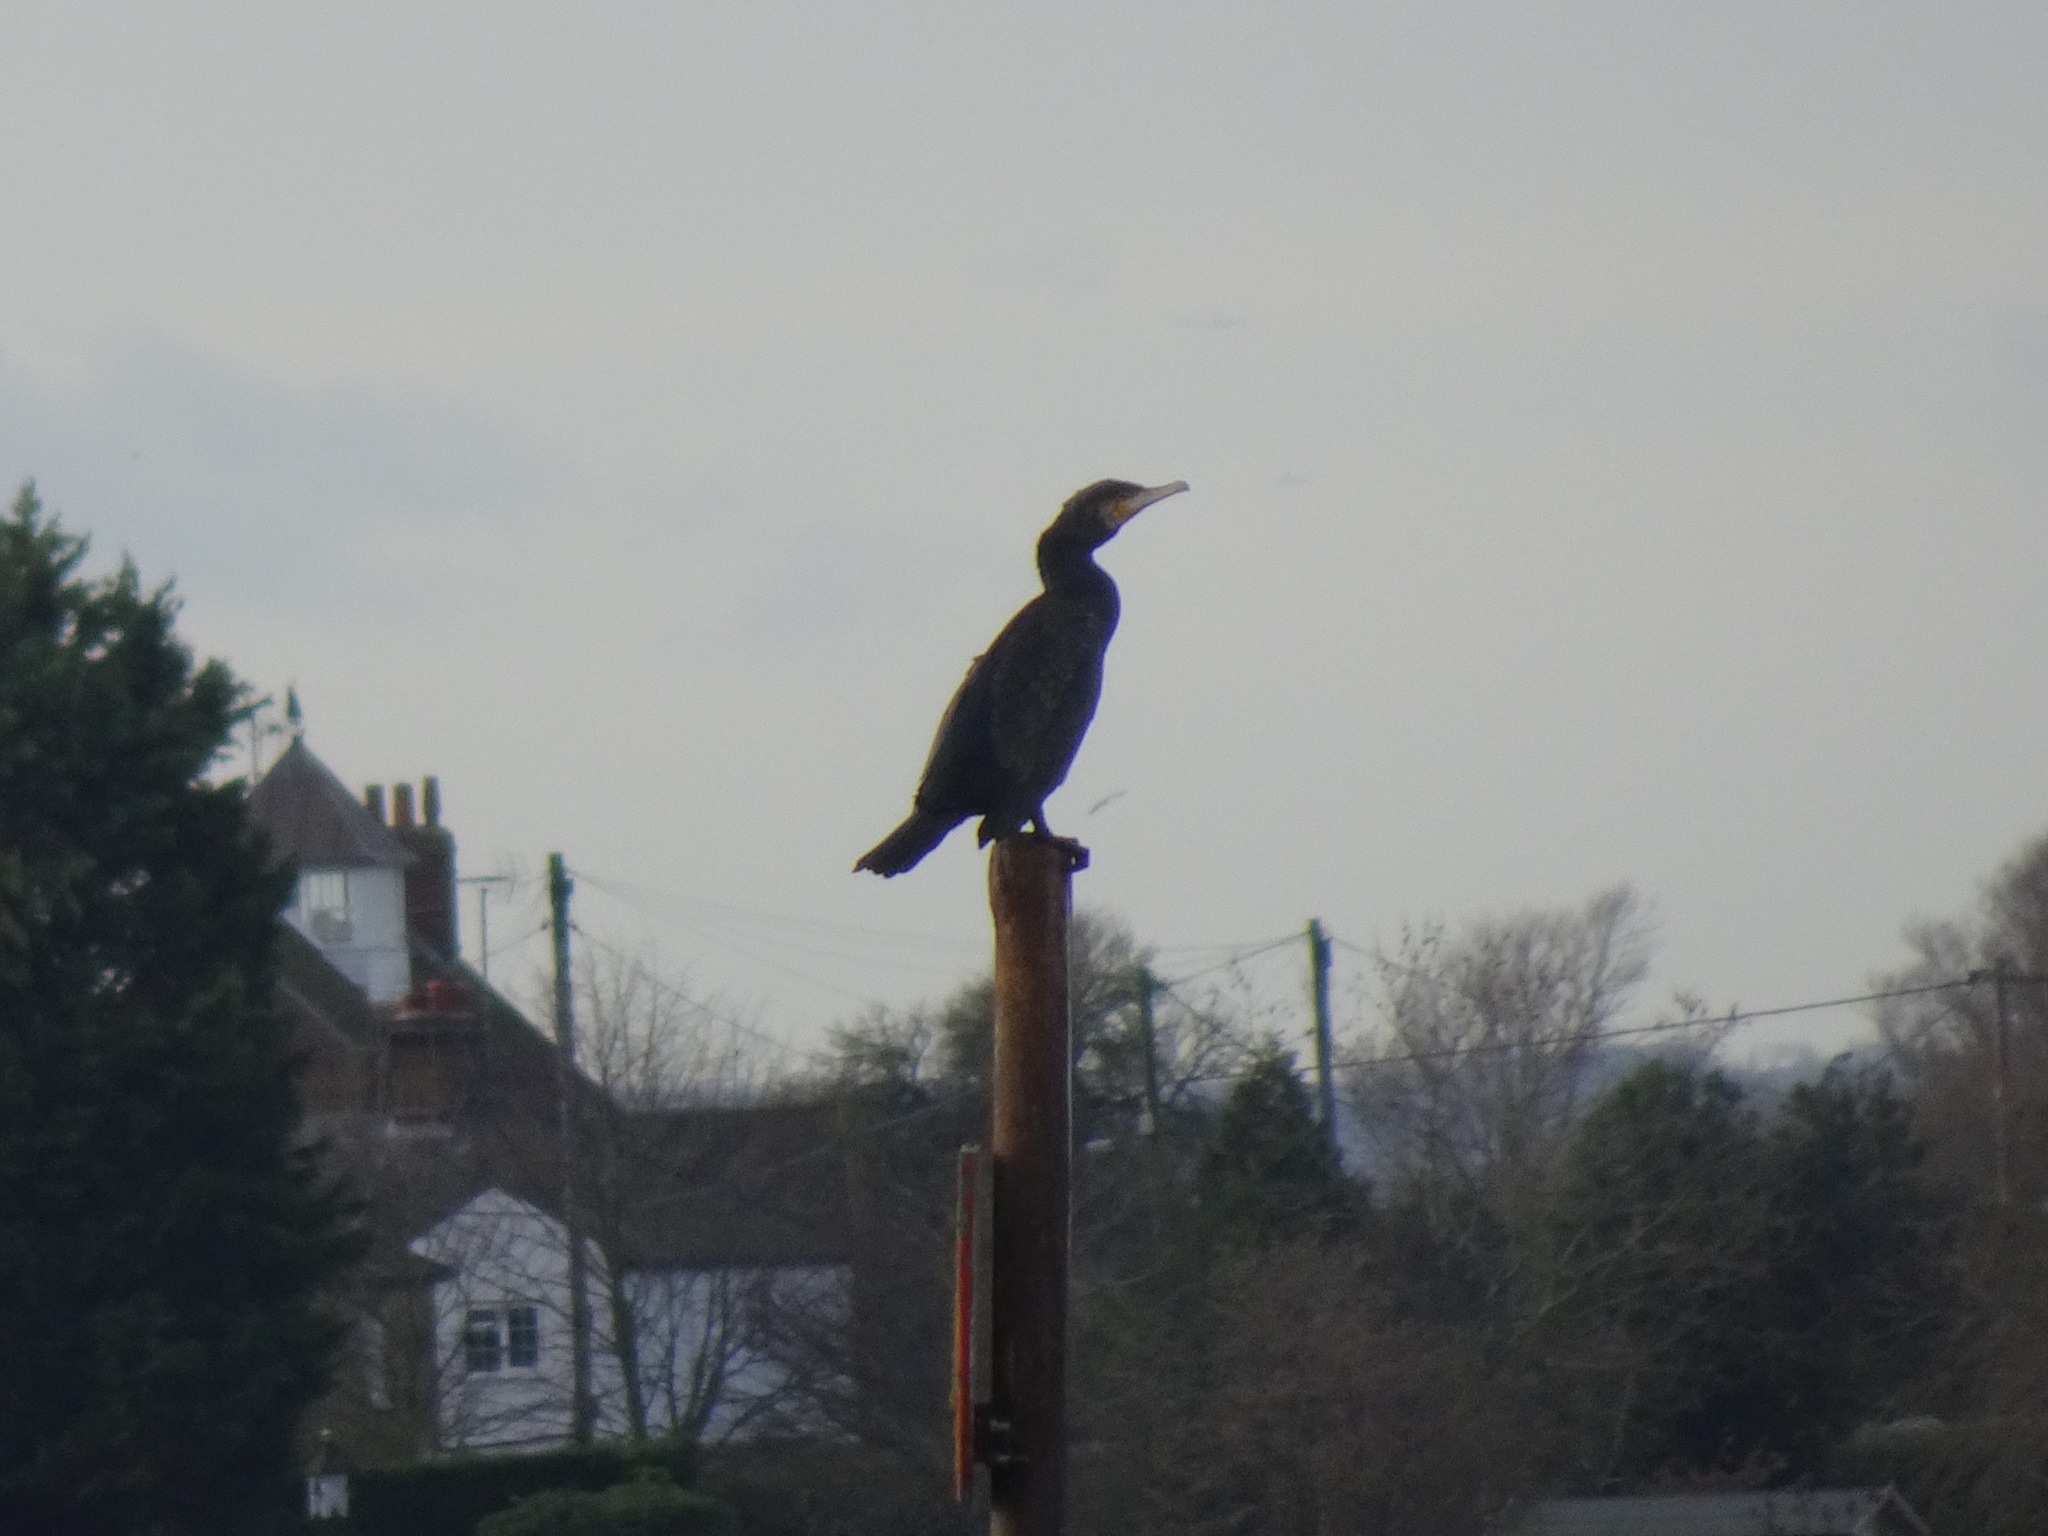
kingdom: Animalia
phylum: Chordata
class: Aves
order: Suliformes
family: Phalacrocoracidae
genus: Phalacrocorax
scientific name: Phalacrocorax carbo
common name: Great cormorant
